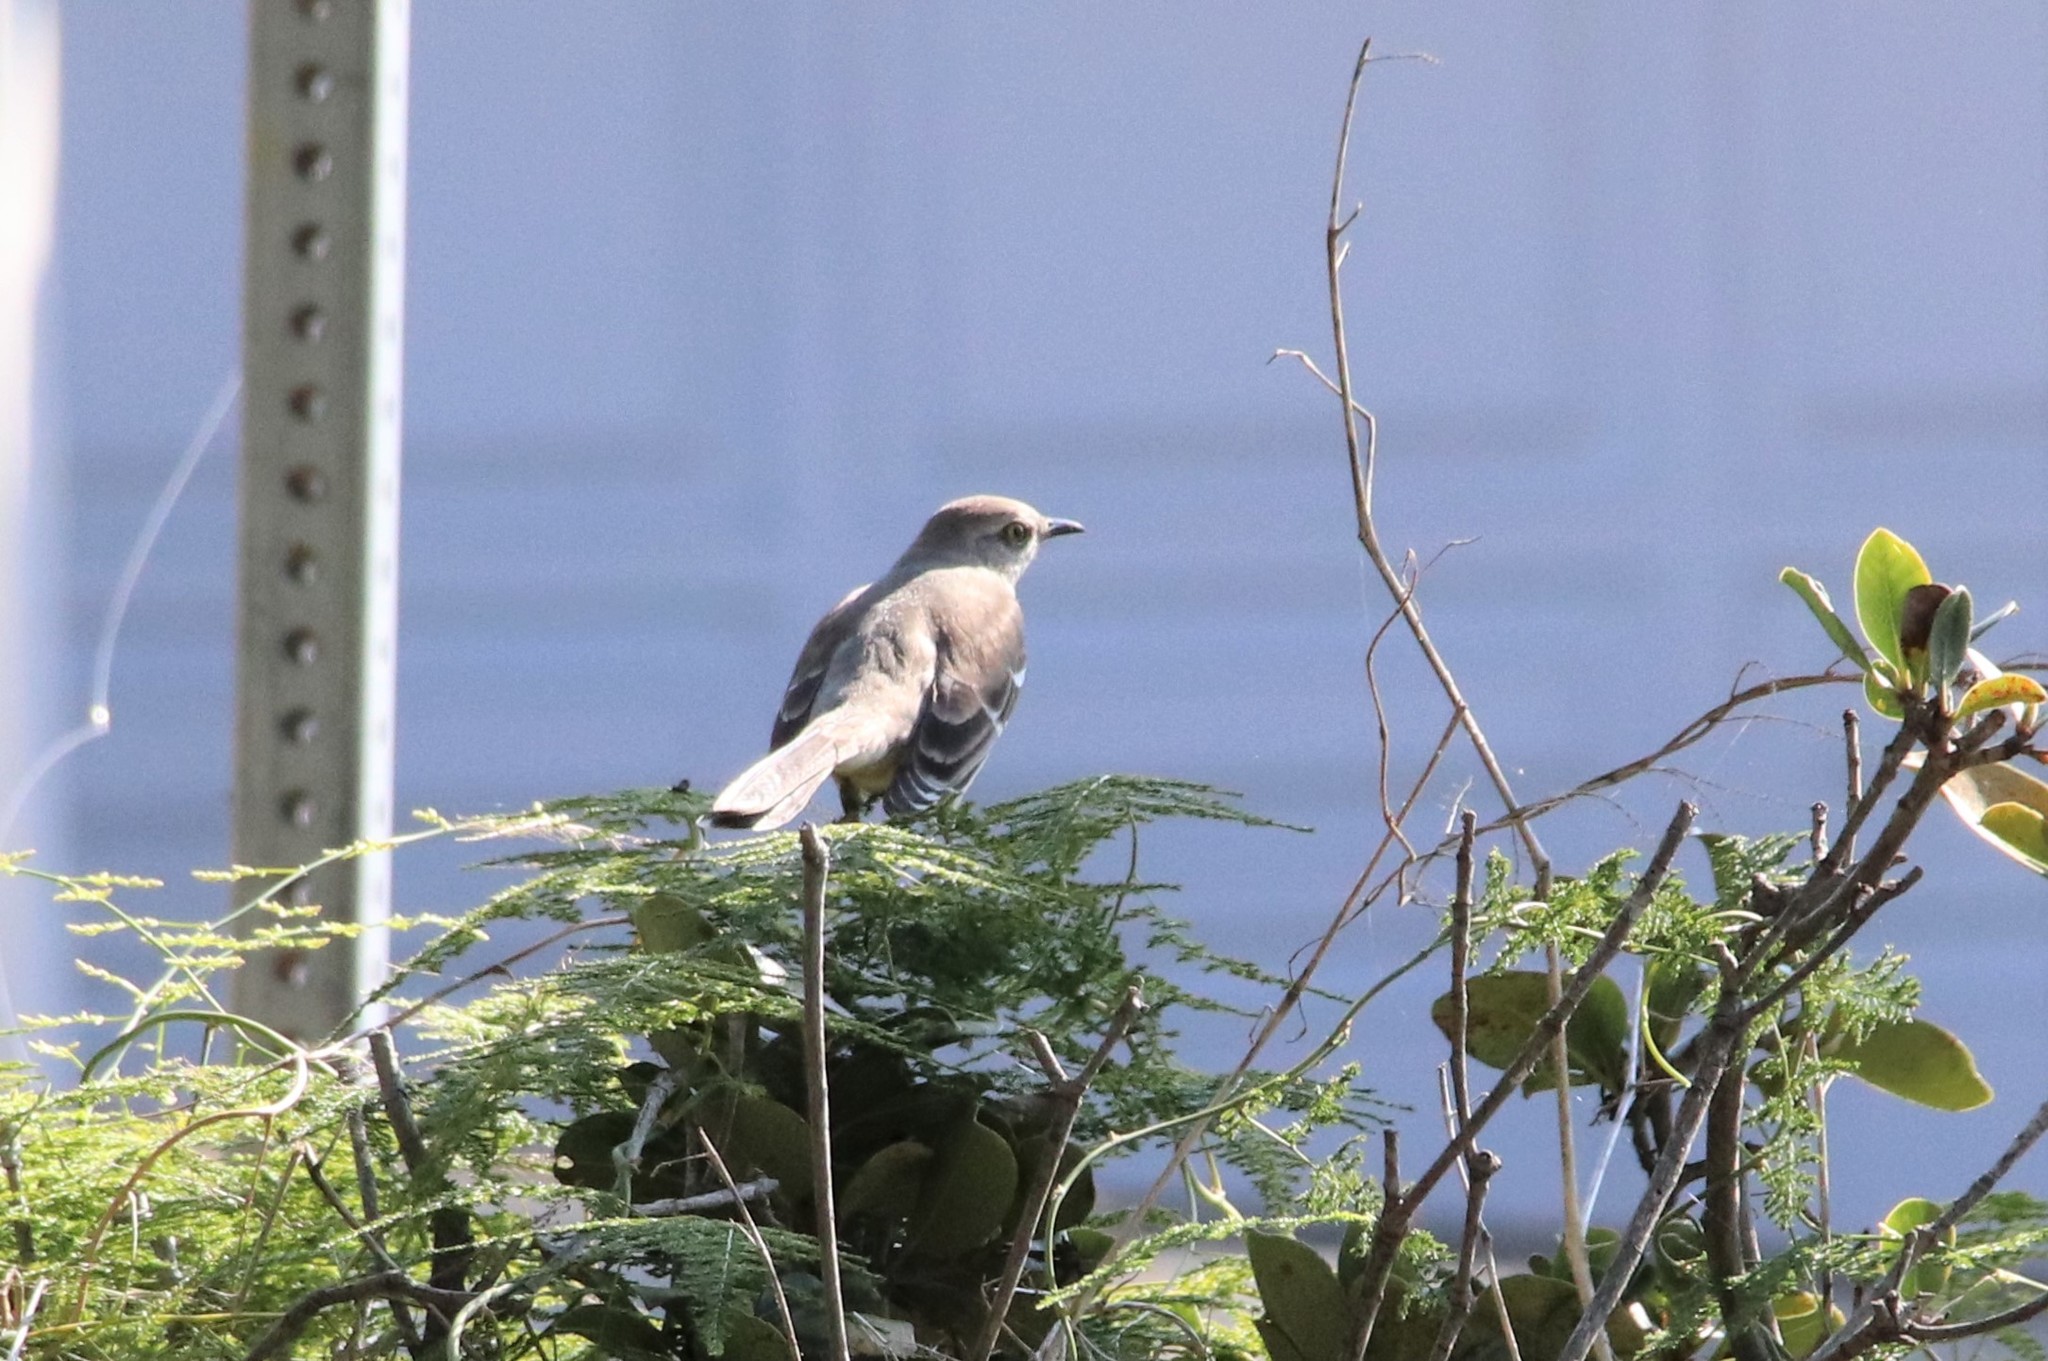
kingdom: Animalia
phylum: Chordata
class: Aves
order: Passeriformes
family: Mimidae
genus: Mimus
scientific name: Mimus polyglottos
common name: Northern mockingbird
